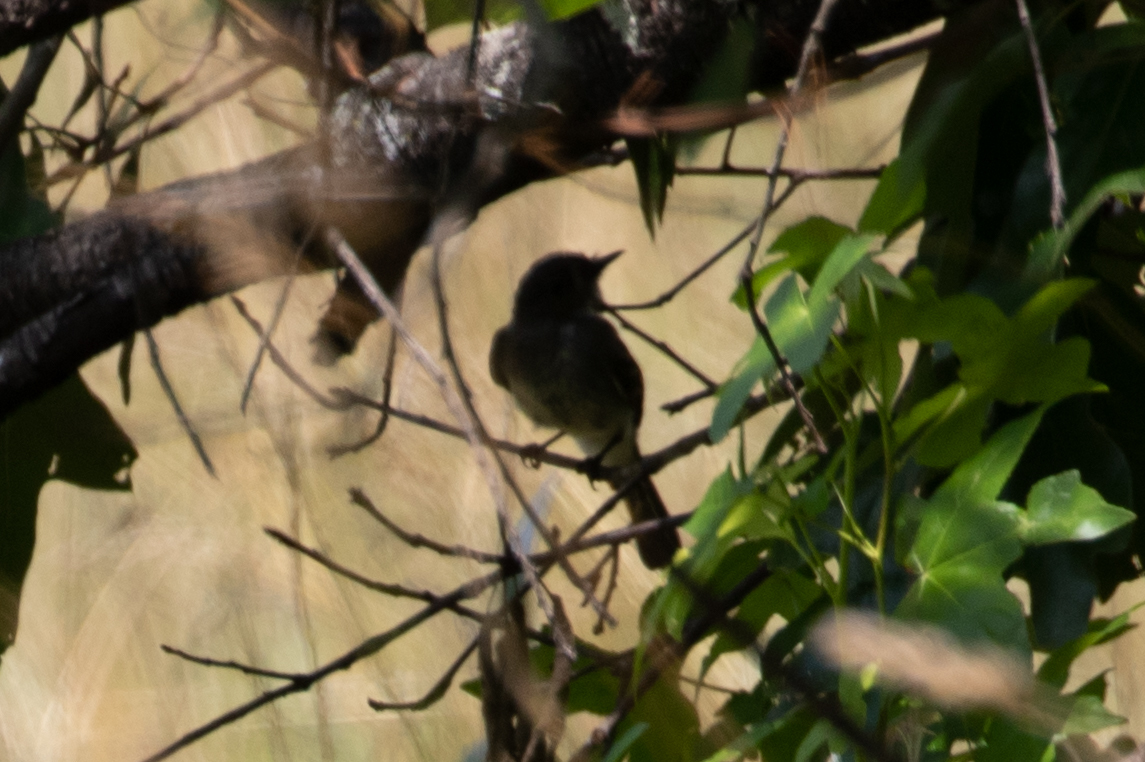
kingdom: Animalia
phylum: Chordata
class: Aves
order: Passeriformes
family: Tyrannidae
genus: Sayornis
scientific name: Sayornis phoebe
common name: Eastern phoebe
